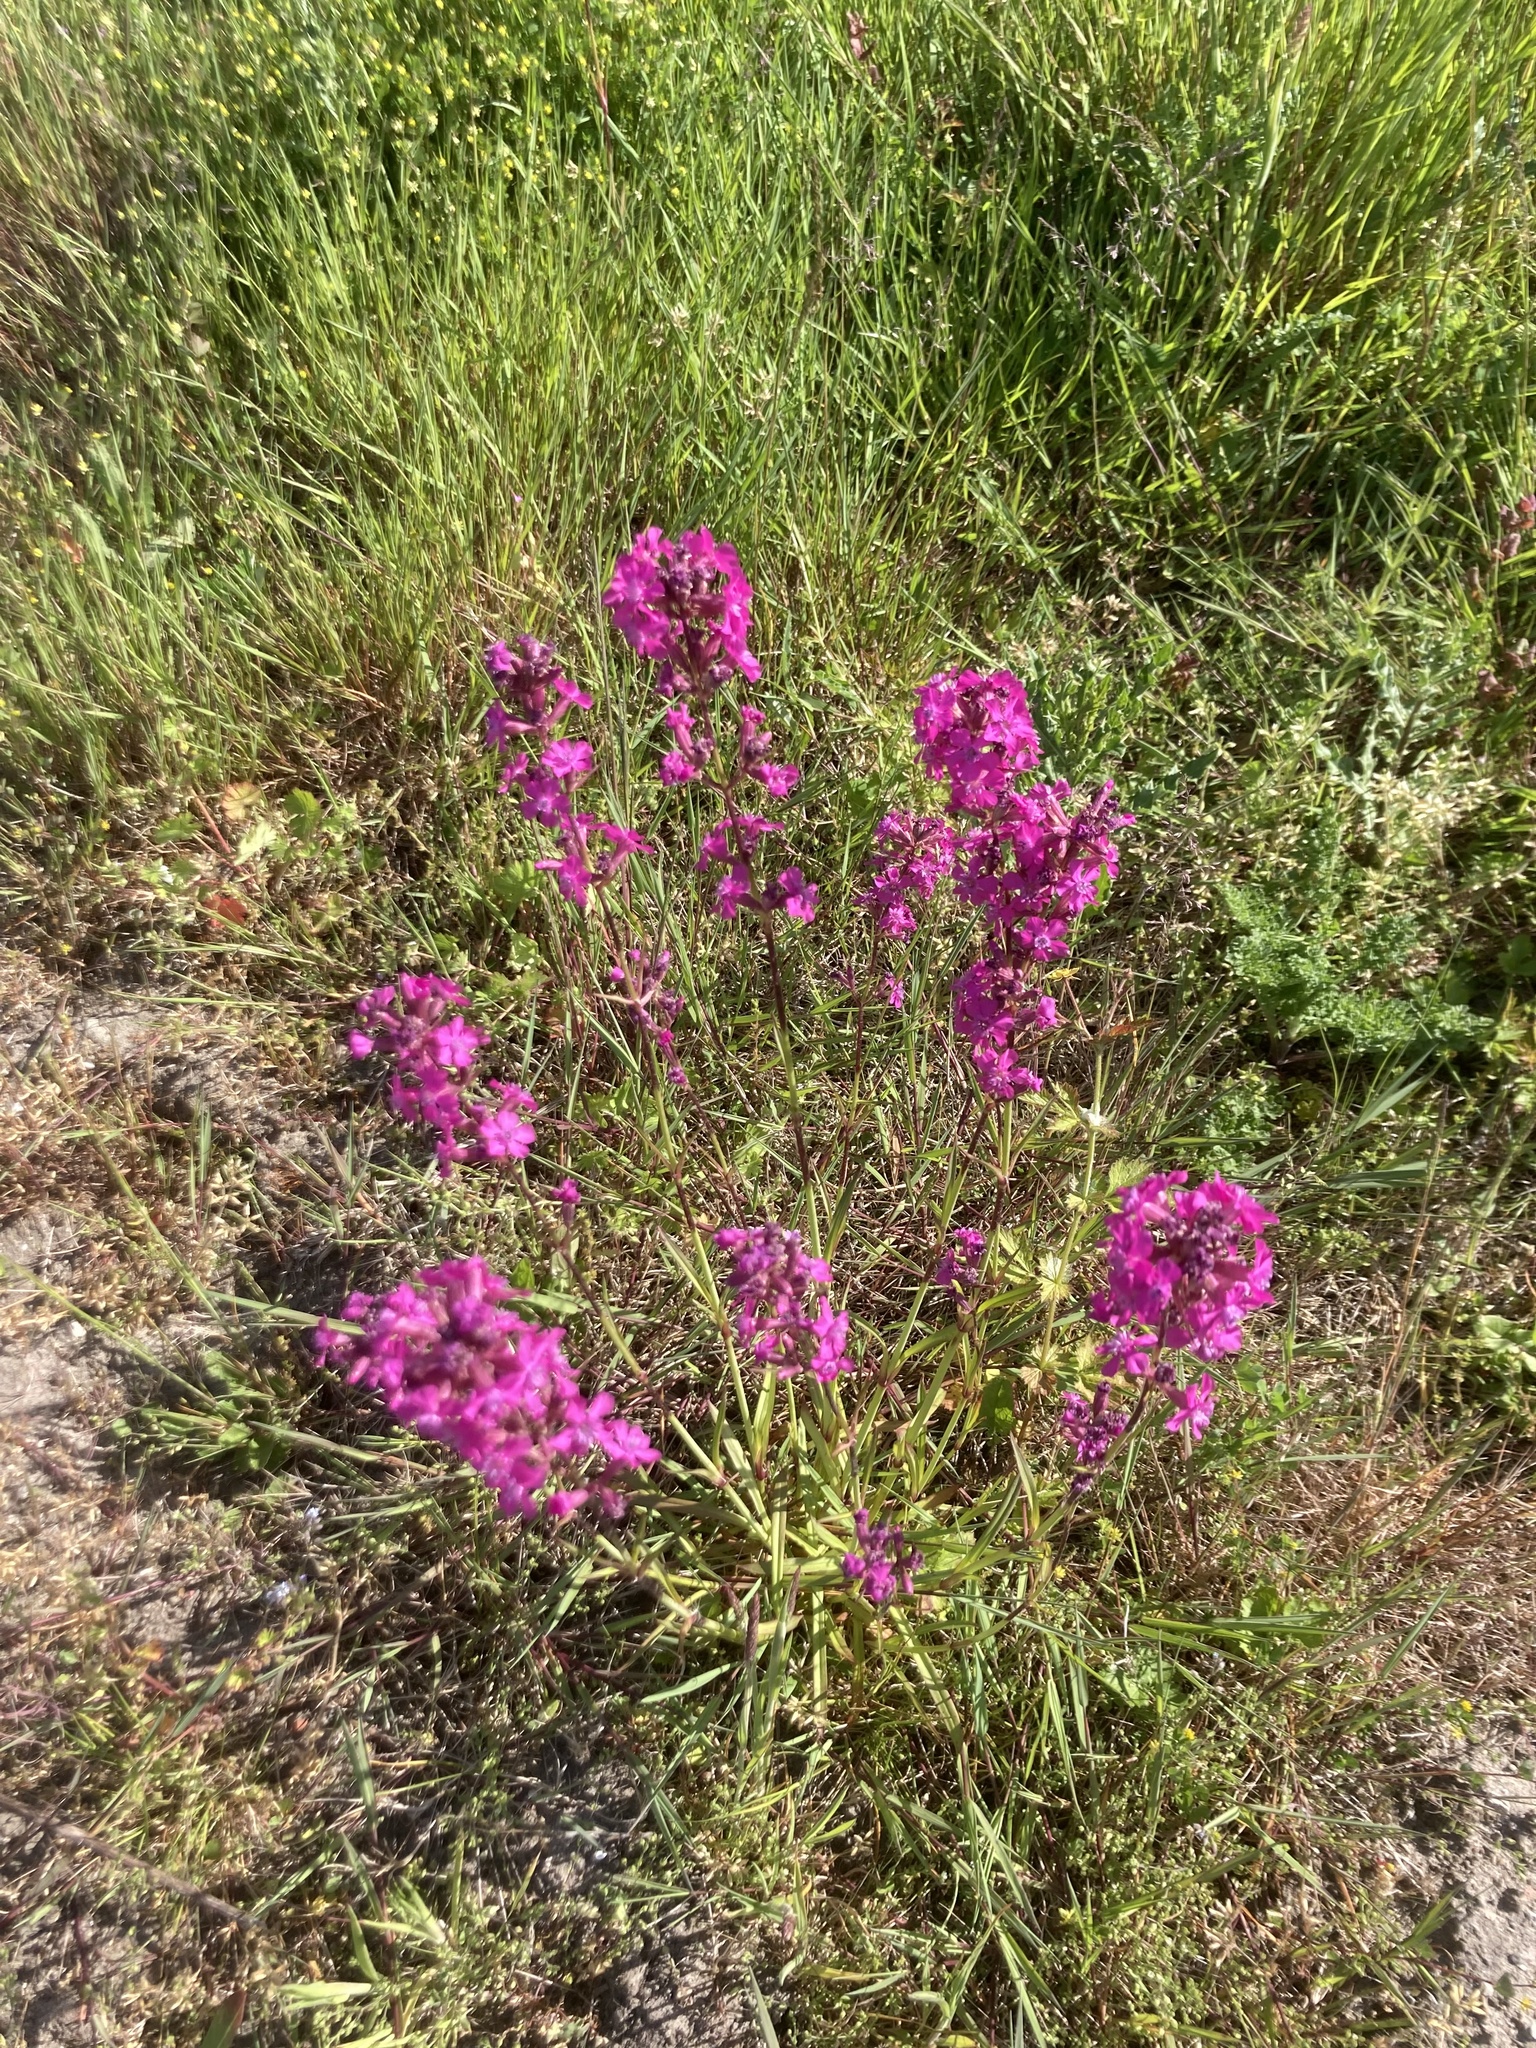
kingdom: Plantae
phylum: Tracheophyta
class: Magnoliopsida
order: Caryophyllales
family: Caryophyllaceae
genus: Viscaria
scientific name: Viscaria vulgaris
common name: Clammy campion
